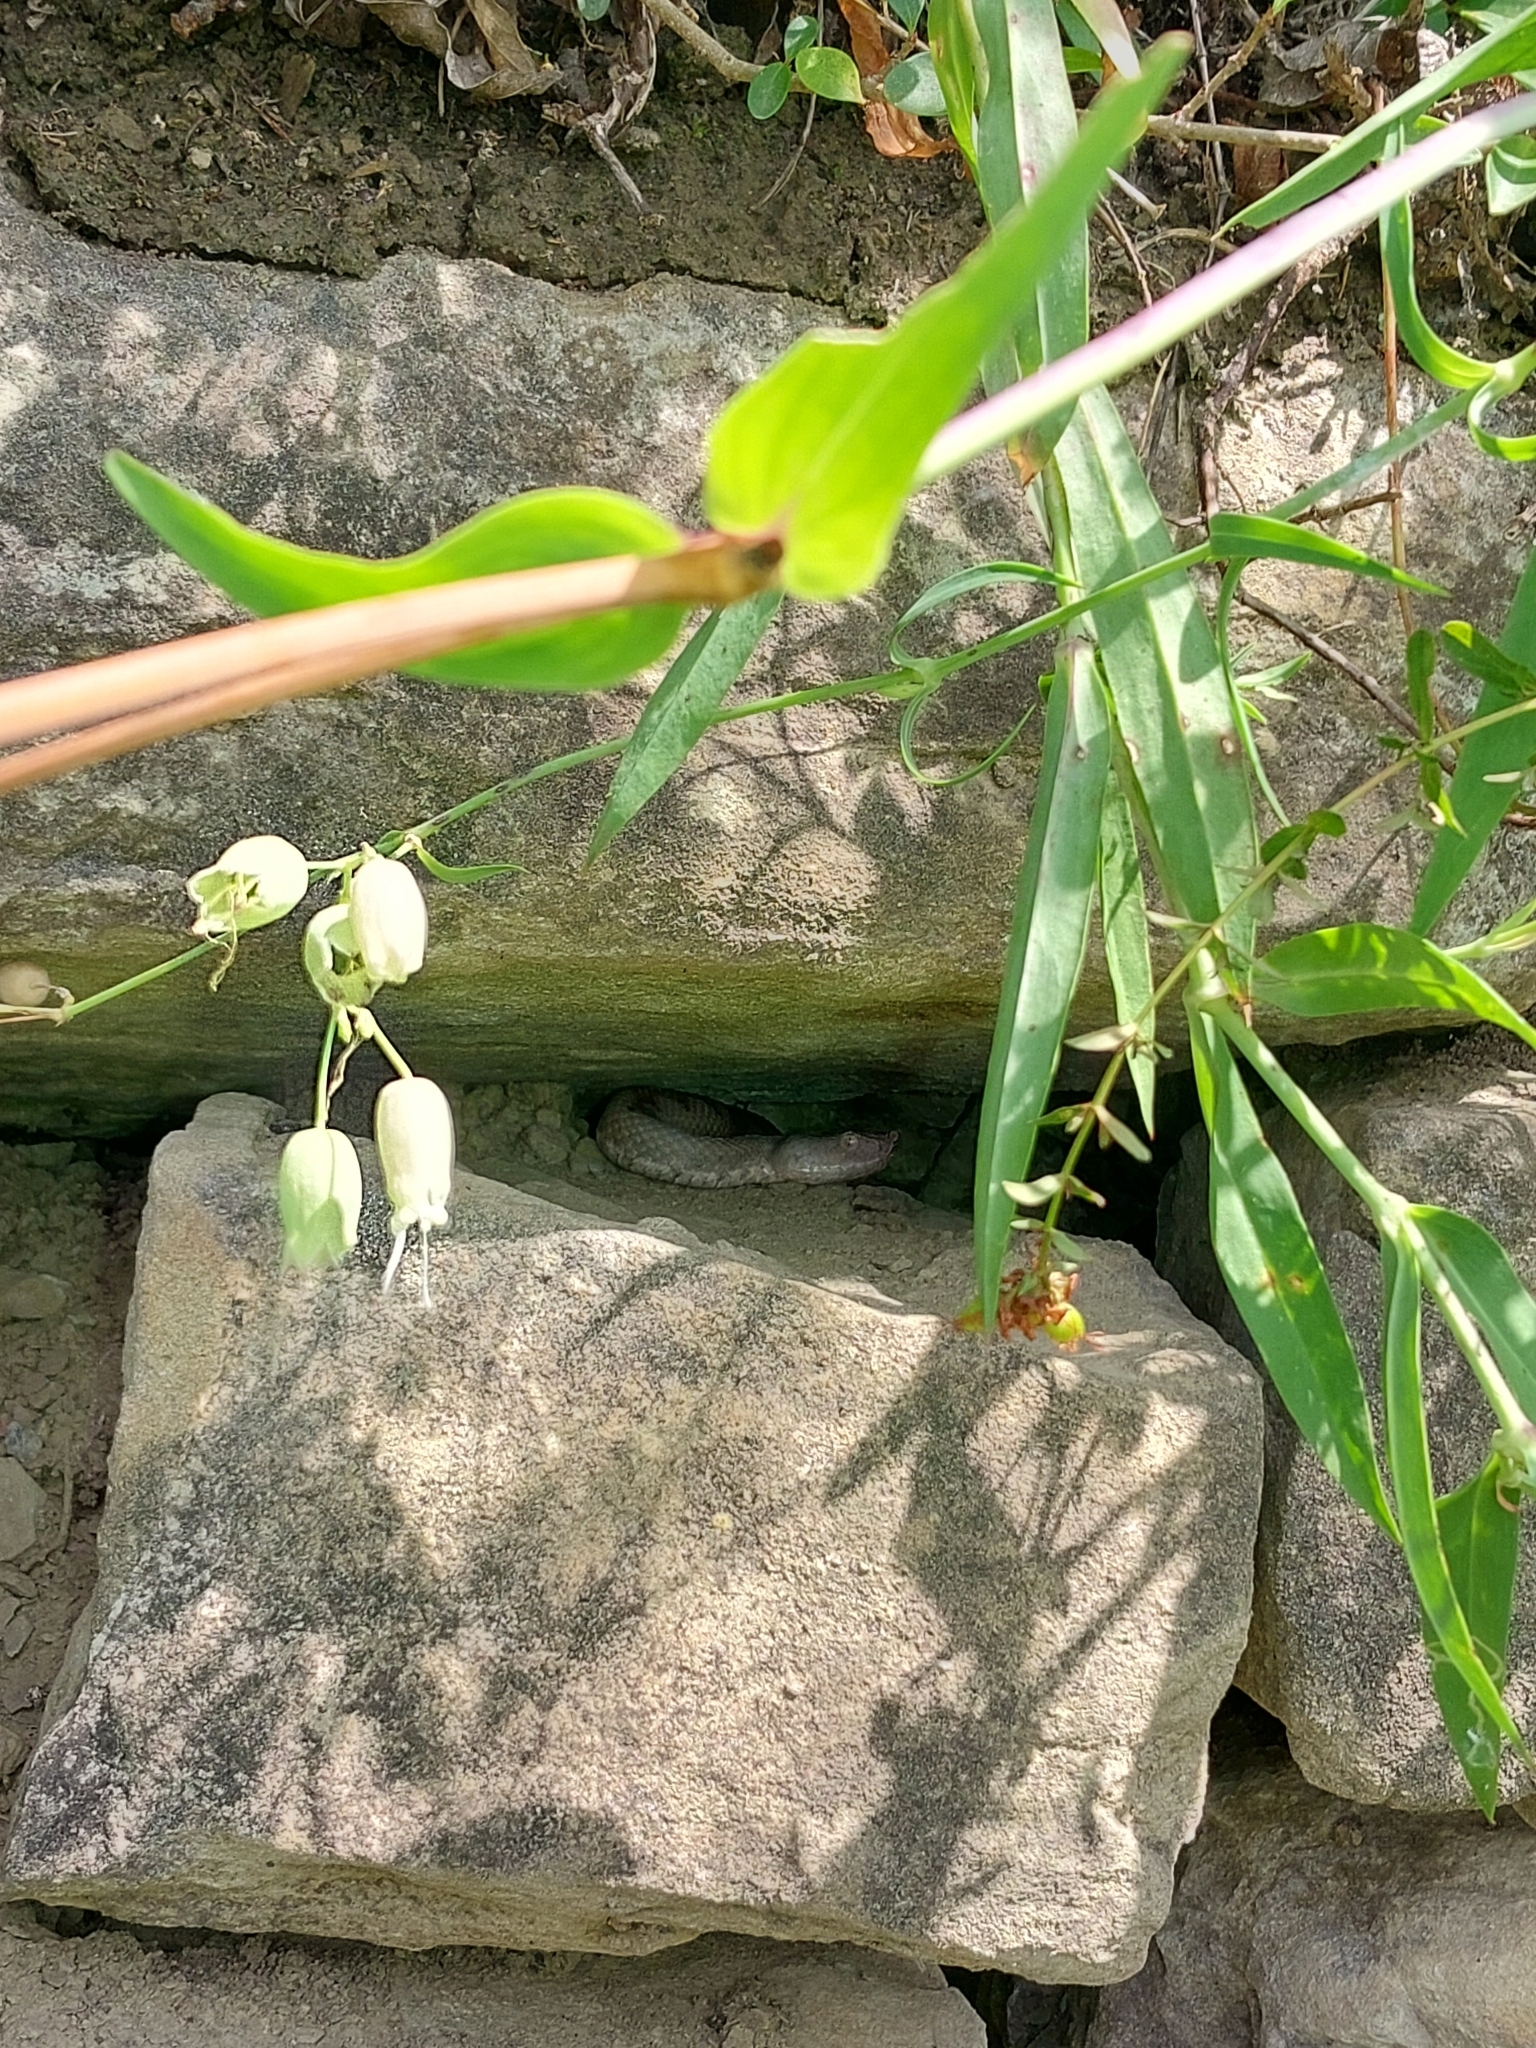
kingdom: Animalia
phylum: Chordata
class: Squamata
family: Viperidae
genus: Vipera
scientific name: Vipera ammodytes
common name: Sand viper
